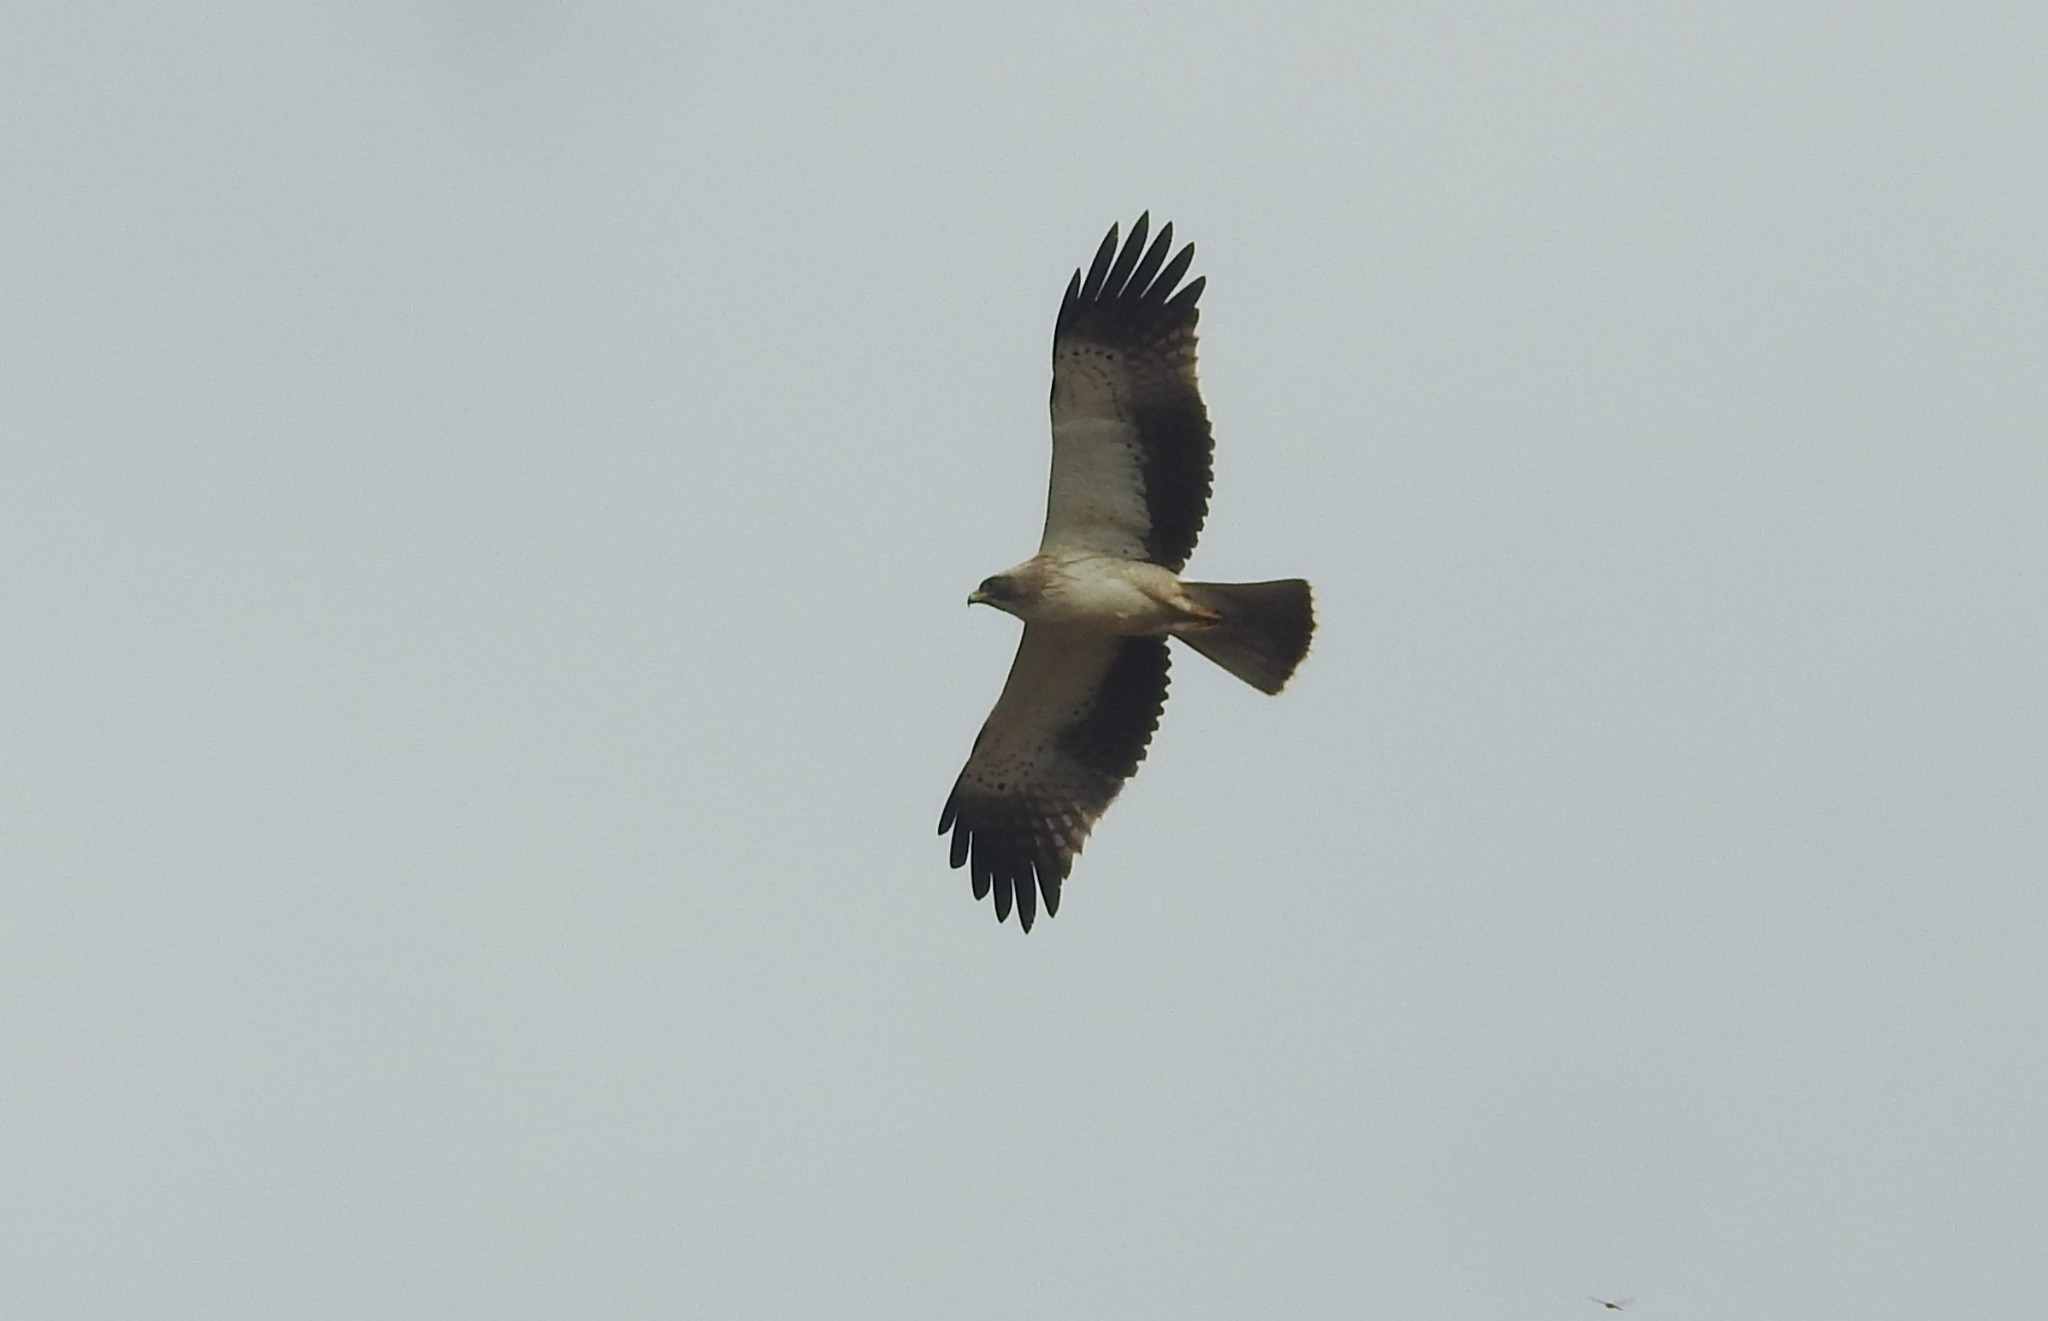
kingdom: Animalia
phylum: Chordata
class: Aves
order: Accipitriformes
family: Accipitridae
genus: Hieraaetus
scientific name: Hieraaetus pennatus
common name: Booted eagle
